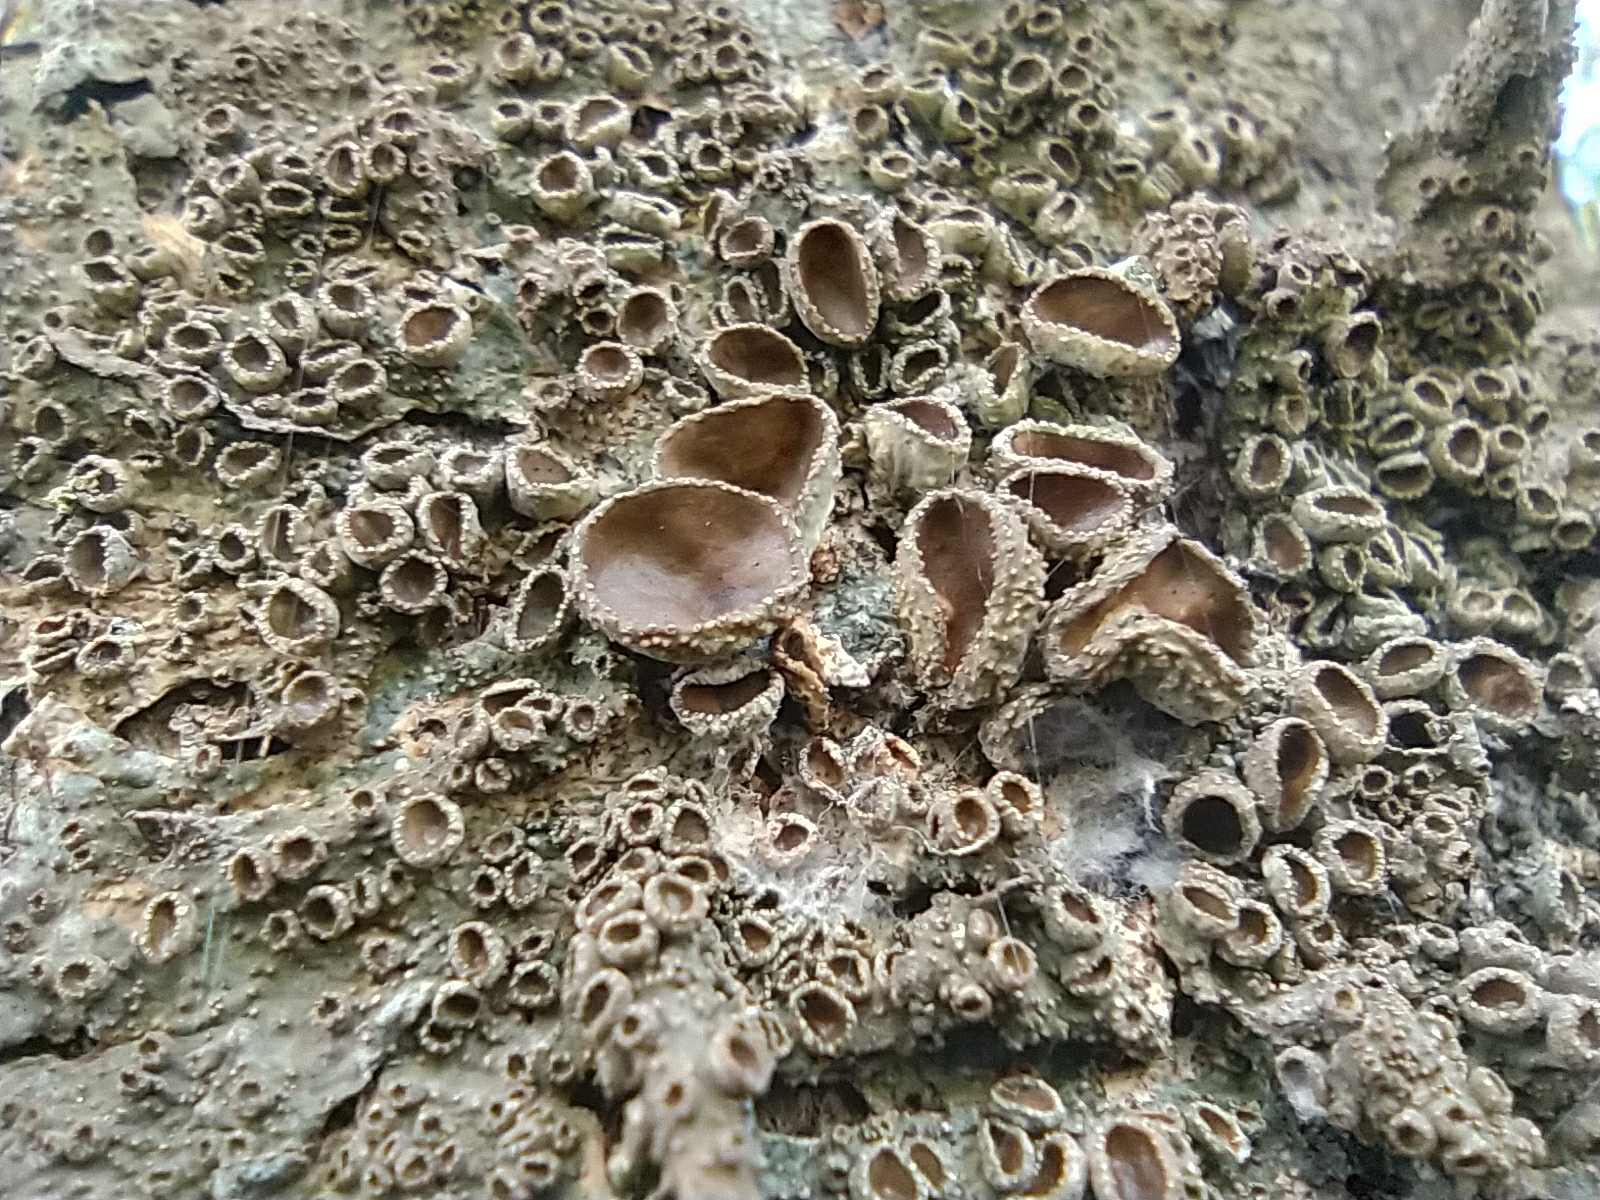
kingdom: Fungi
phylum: Ascomycota
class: Lecanoromycetes
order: Lecanorales
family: Parmeliaceae
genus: Pleurosticta
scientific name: Pleurosticta acetabulum
